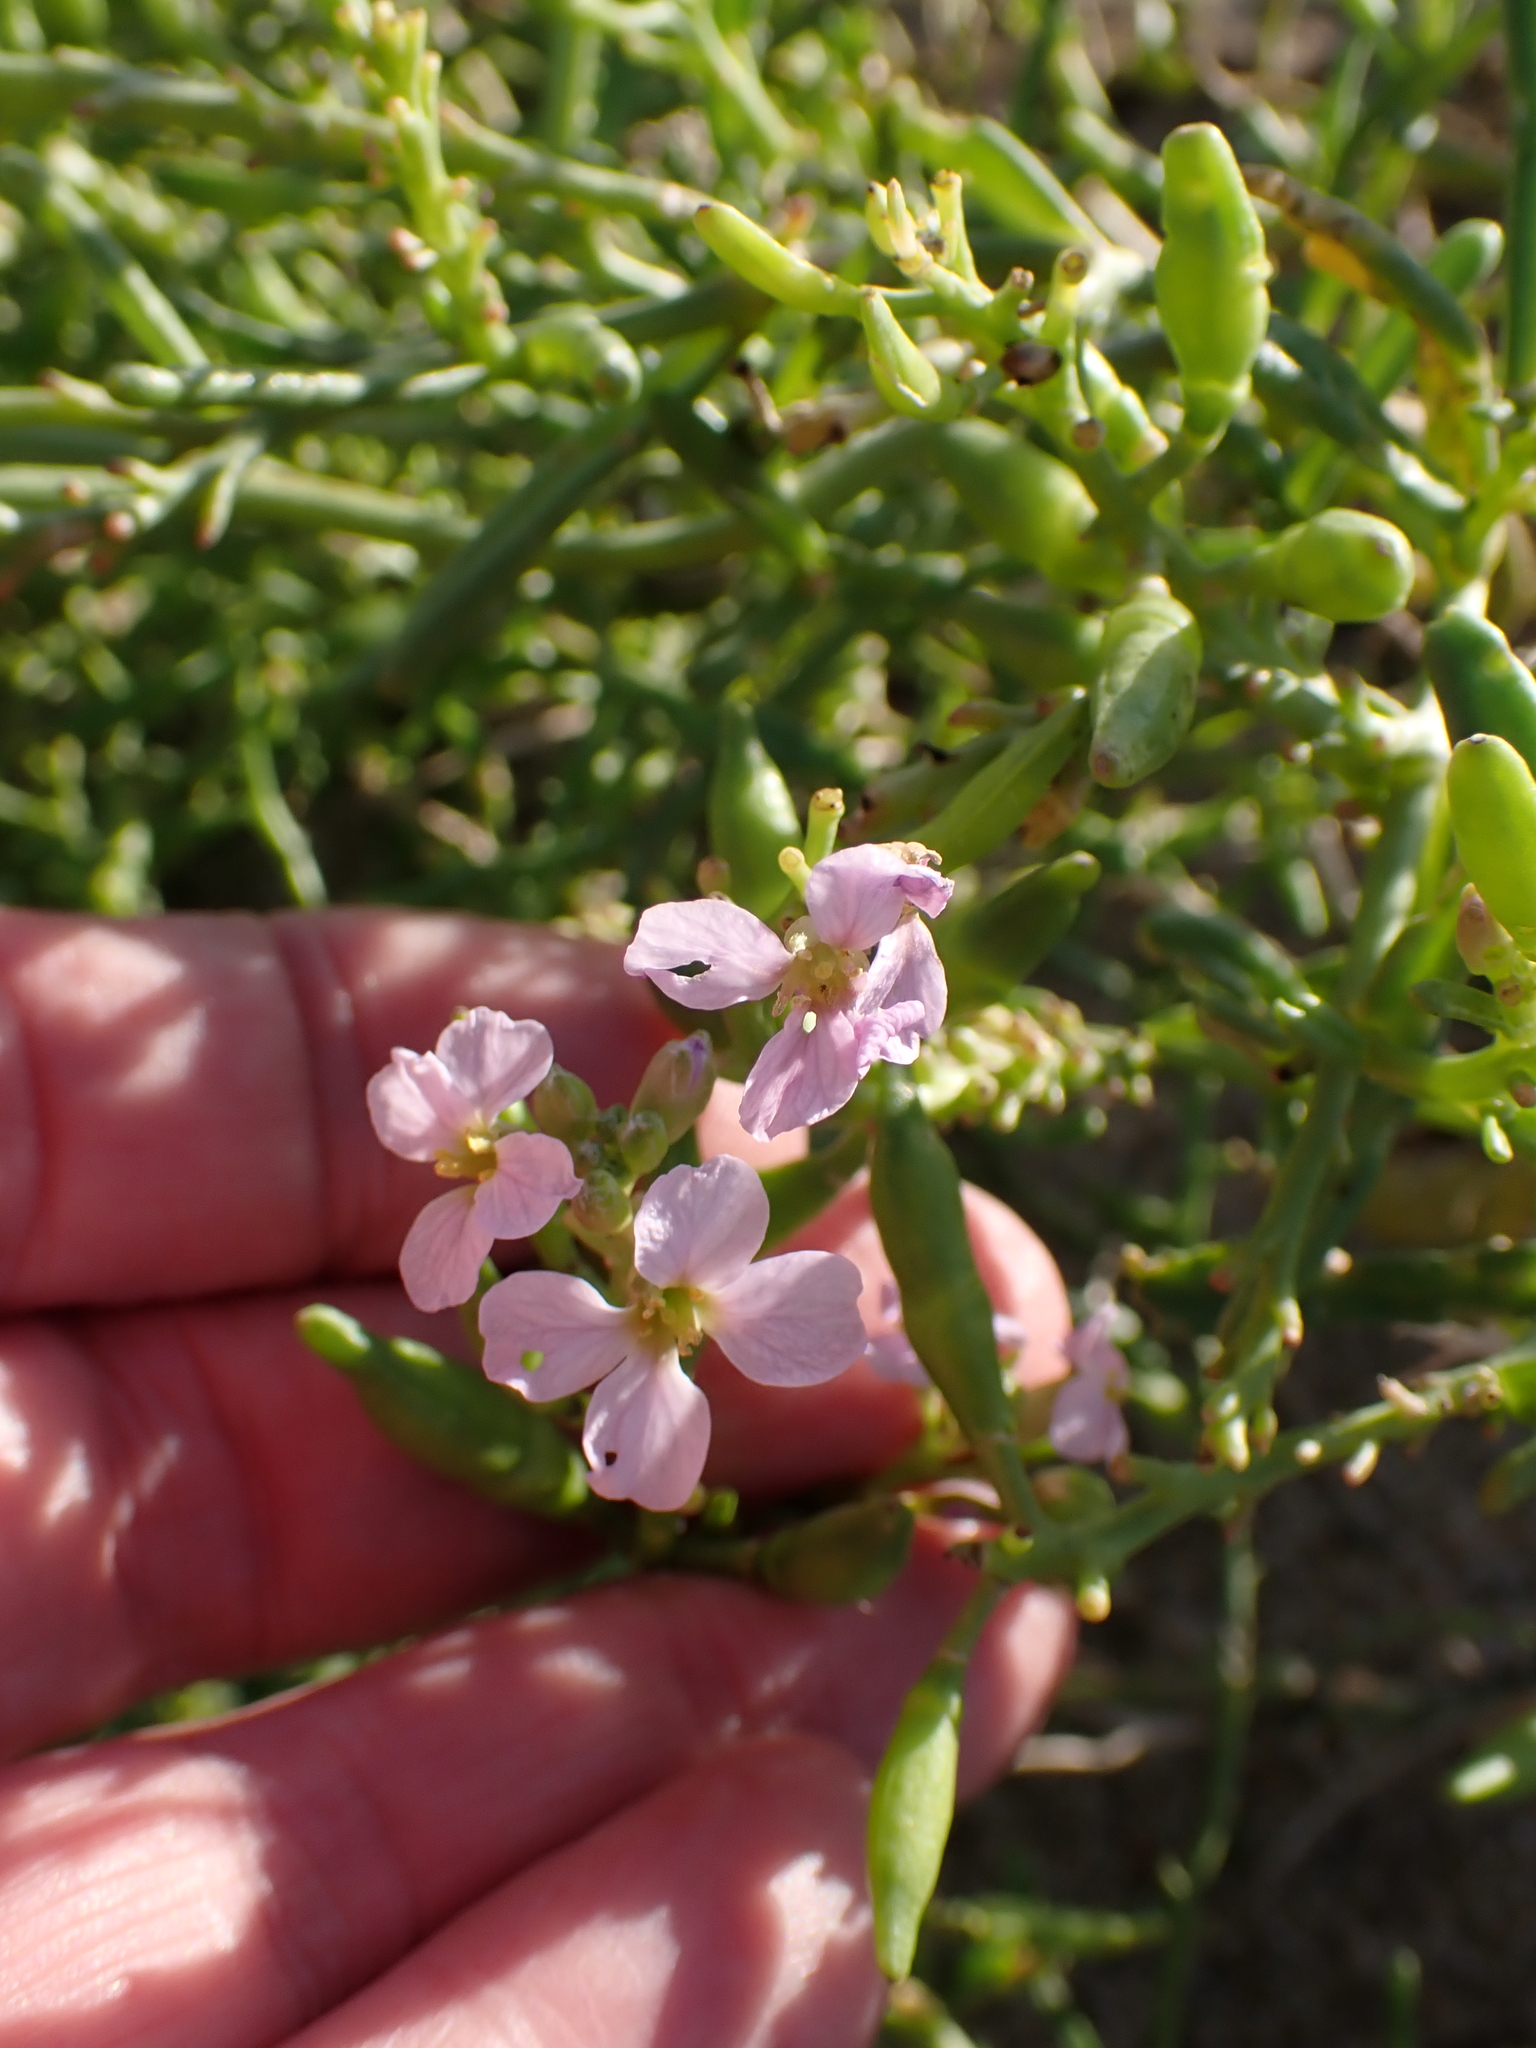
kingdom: Plantae
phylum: Tracheophyta
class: Magnoliopsida
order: Brassicales
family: Brassicaceae
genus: Cakile
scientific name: Cakile maritima
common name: Sea rocket
